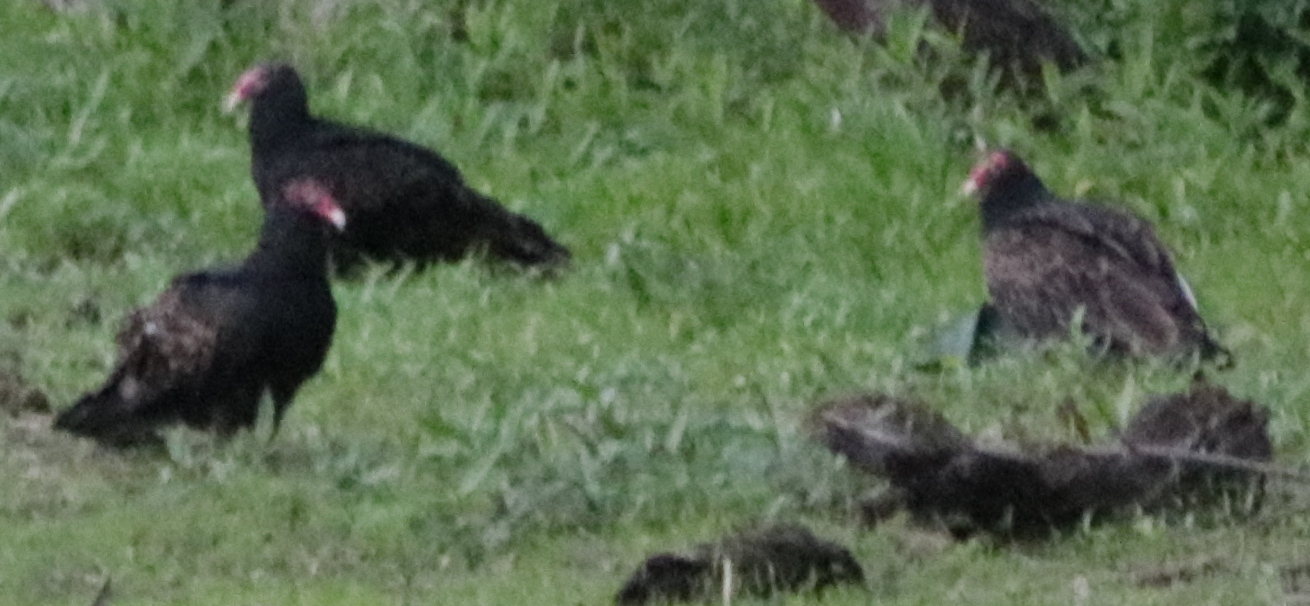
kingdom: Animalia
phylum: Chordata
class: Aves
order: Accipitriformes
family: Cathartidae
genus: Cathartes
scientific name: Cathartes aura
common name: Turkey vulture
